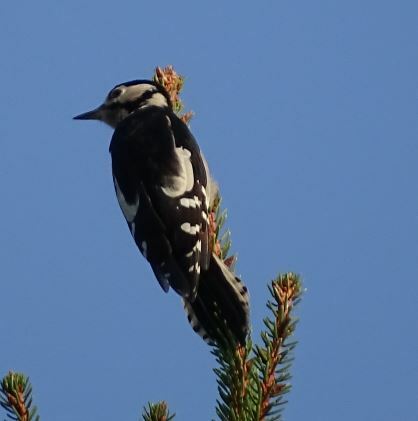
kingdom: Animalia
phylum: Chordata
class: Aves
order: Piciformes
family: Picidae
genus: Dendrocopos
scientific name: Dendrocopos major
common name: Great spotted woodpecker
